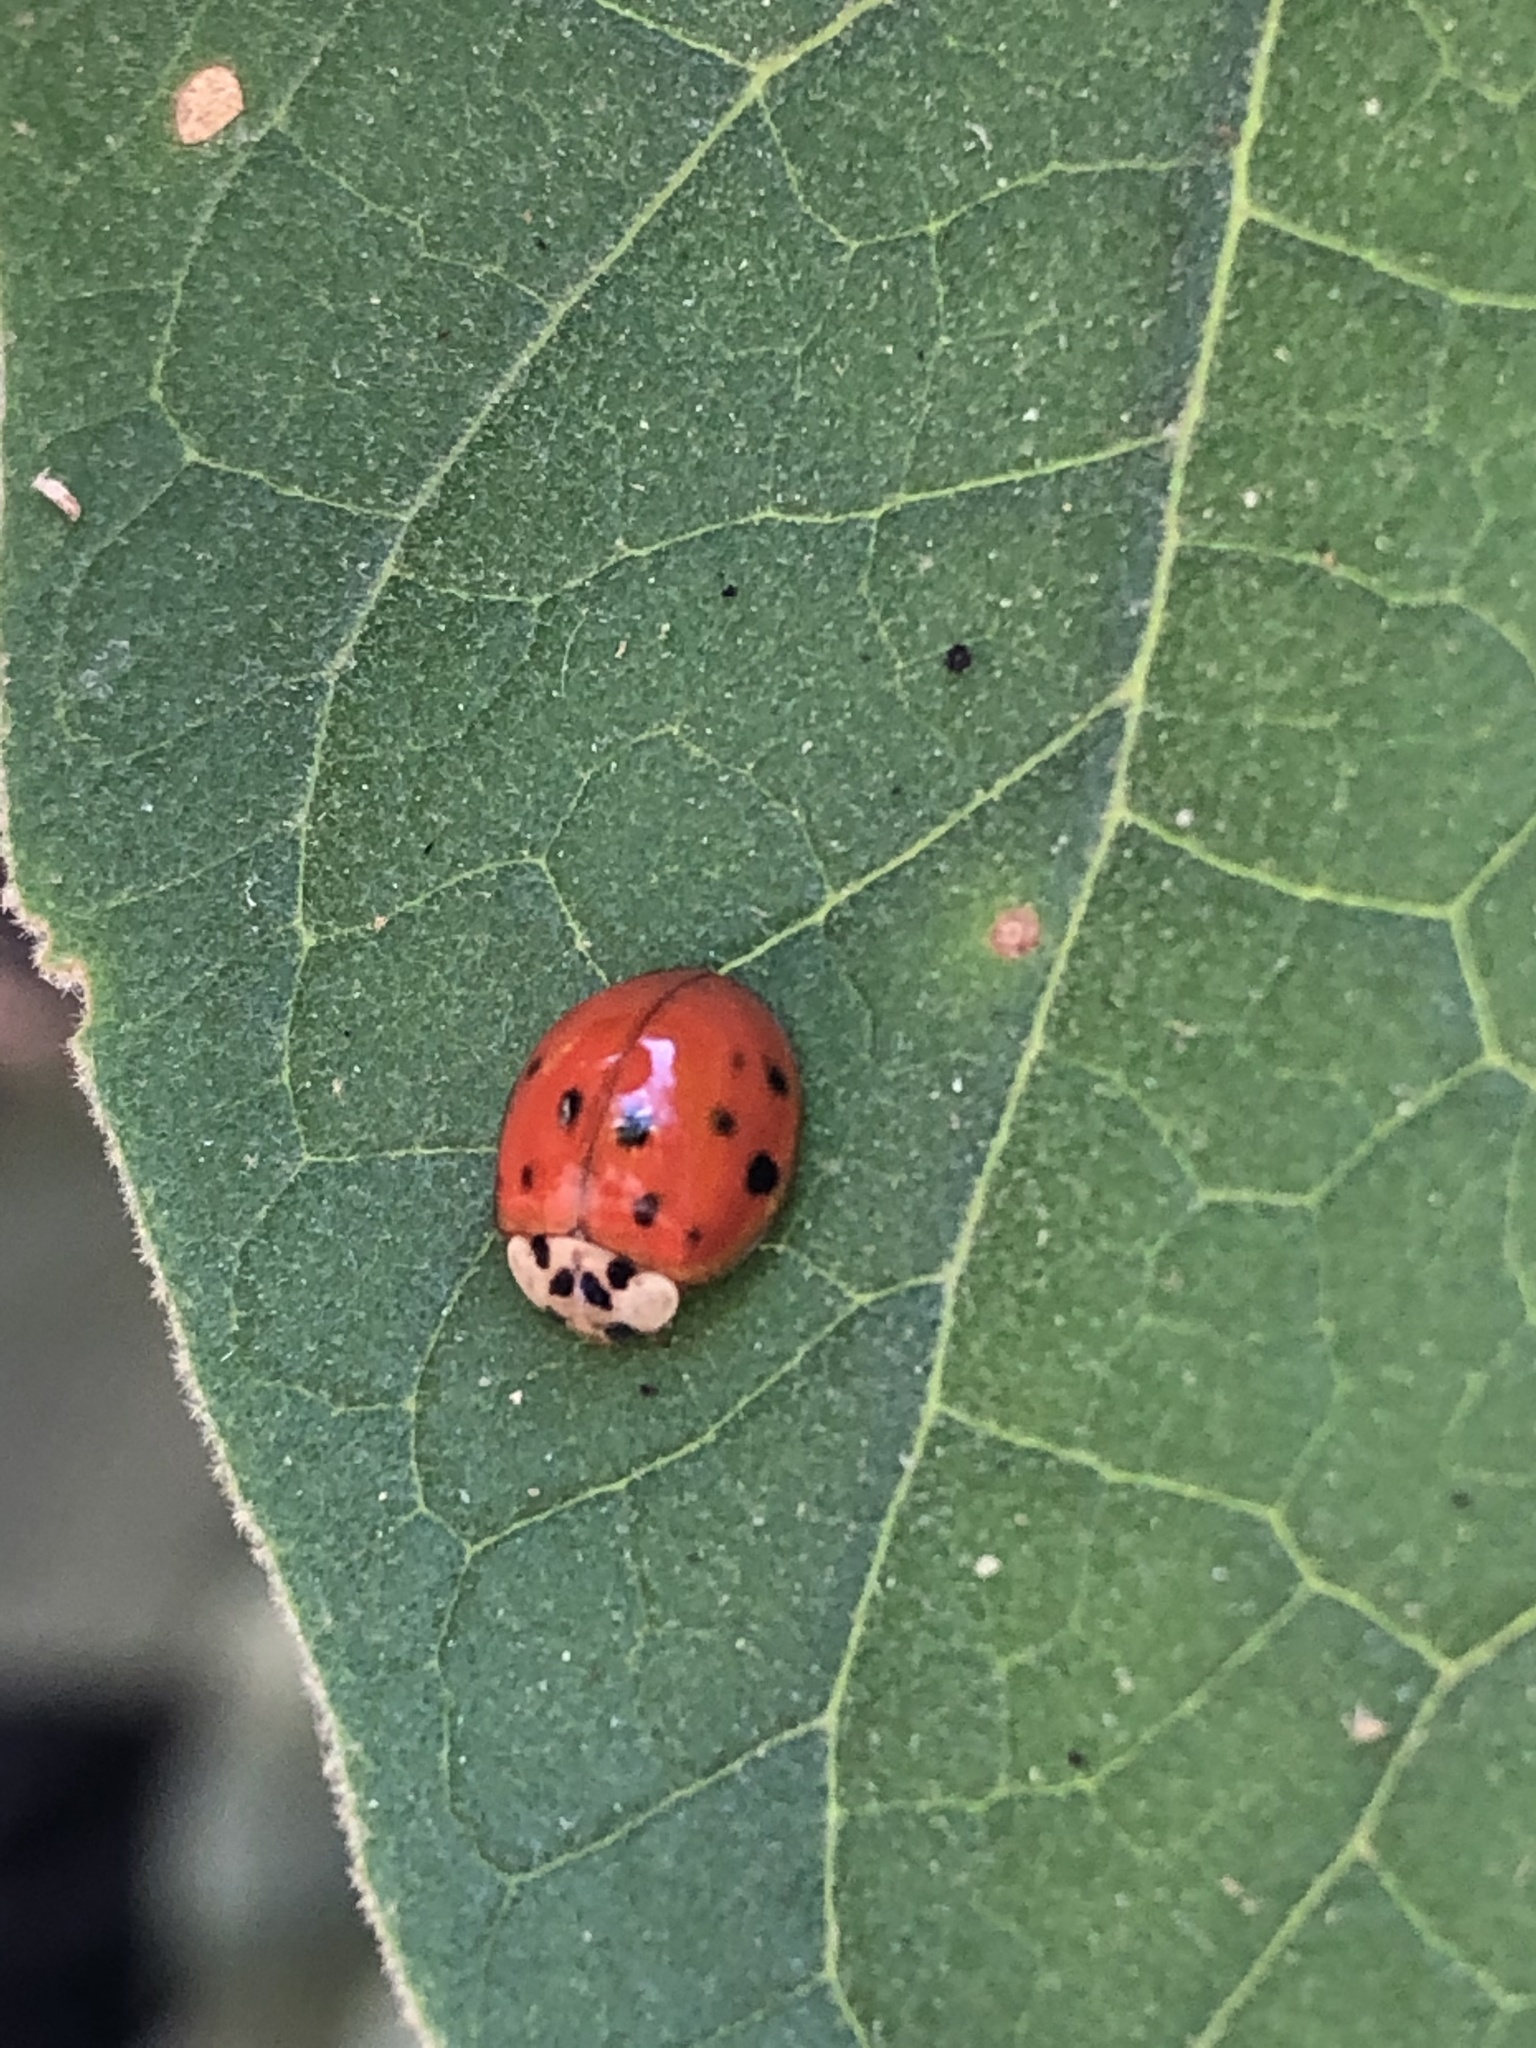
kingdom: Animalia
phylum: Arthropoda
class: Insecta
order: Coleoptera
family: Coccinellidae
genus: Harmonia
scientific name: Harmonia axyridis
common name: Harlequin ladybird
